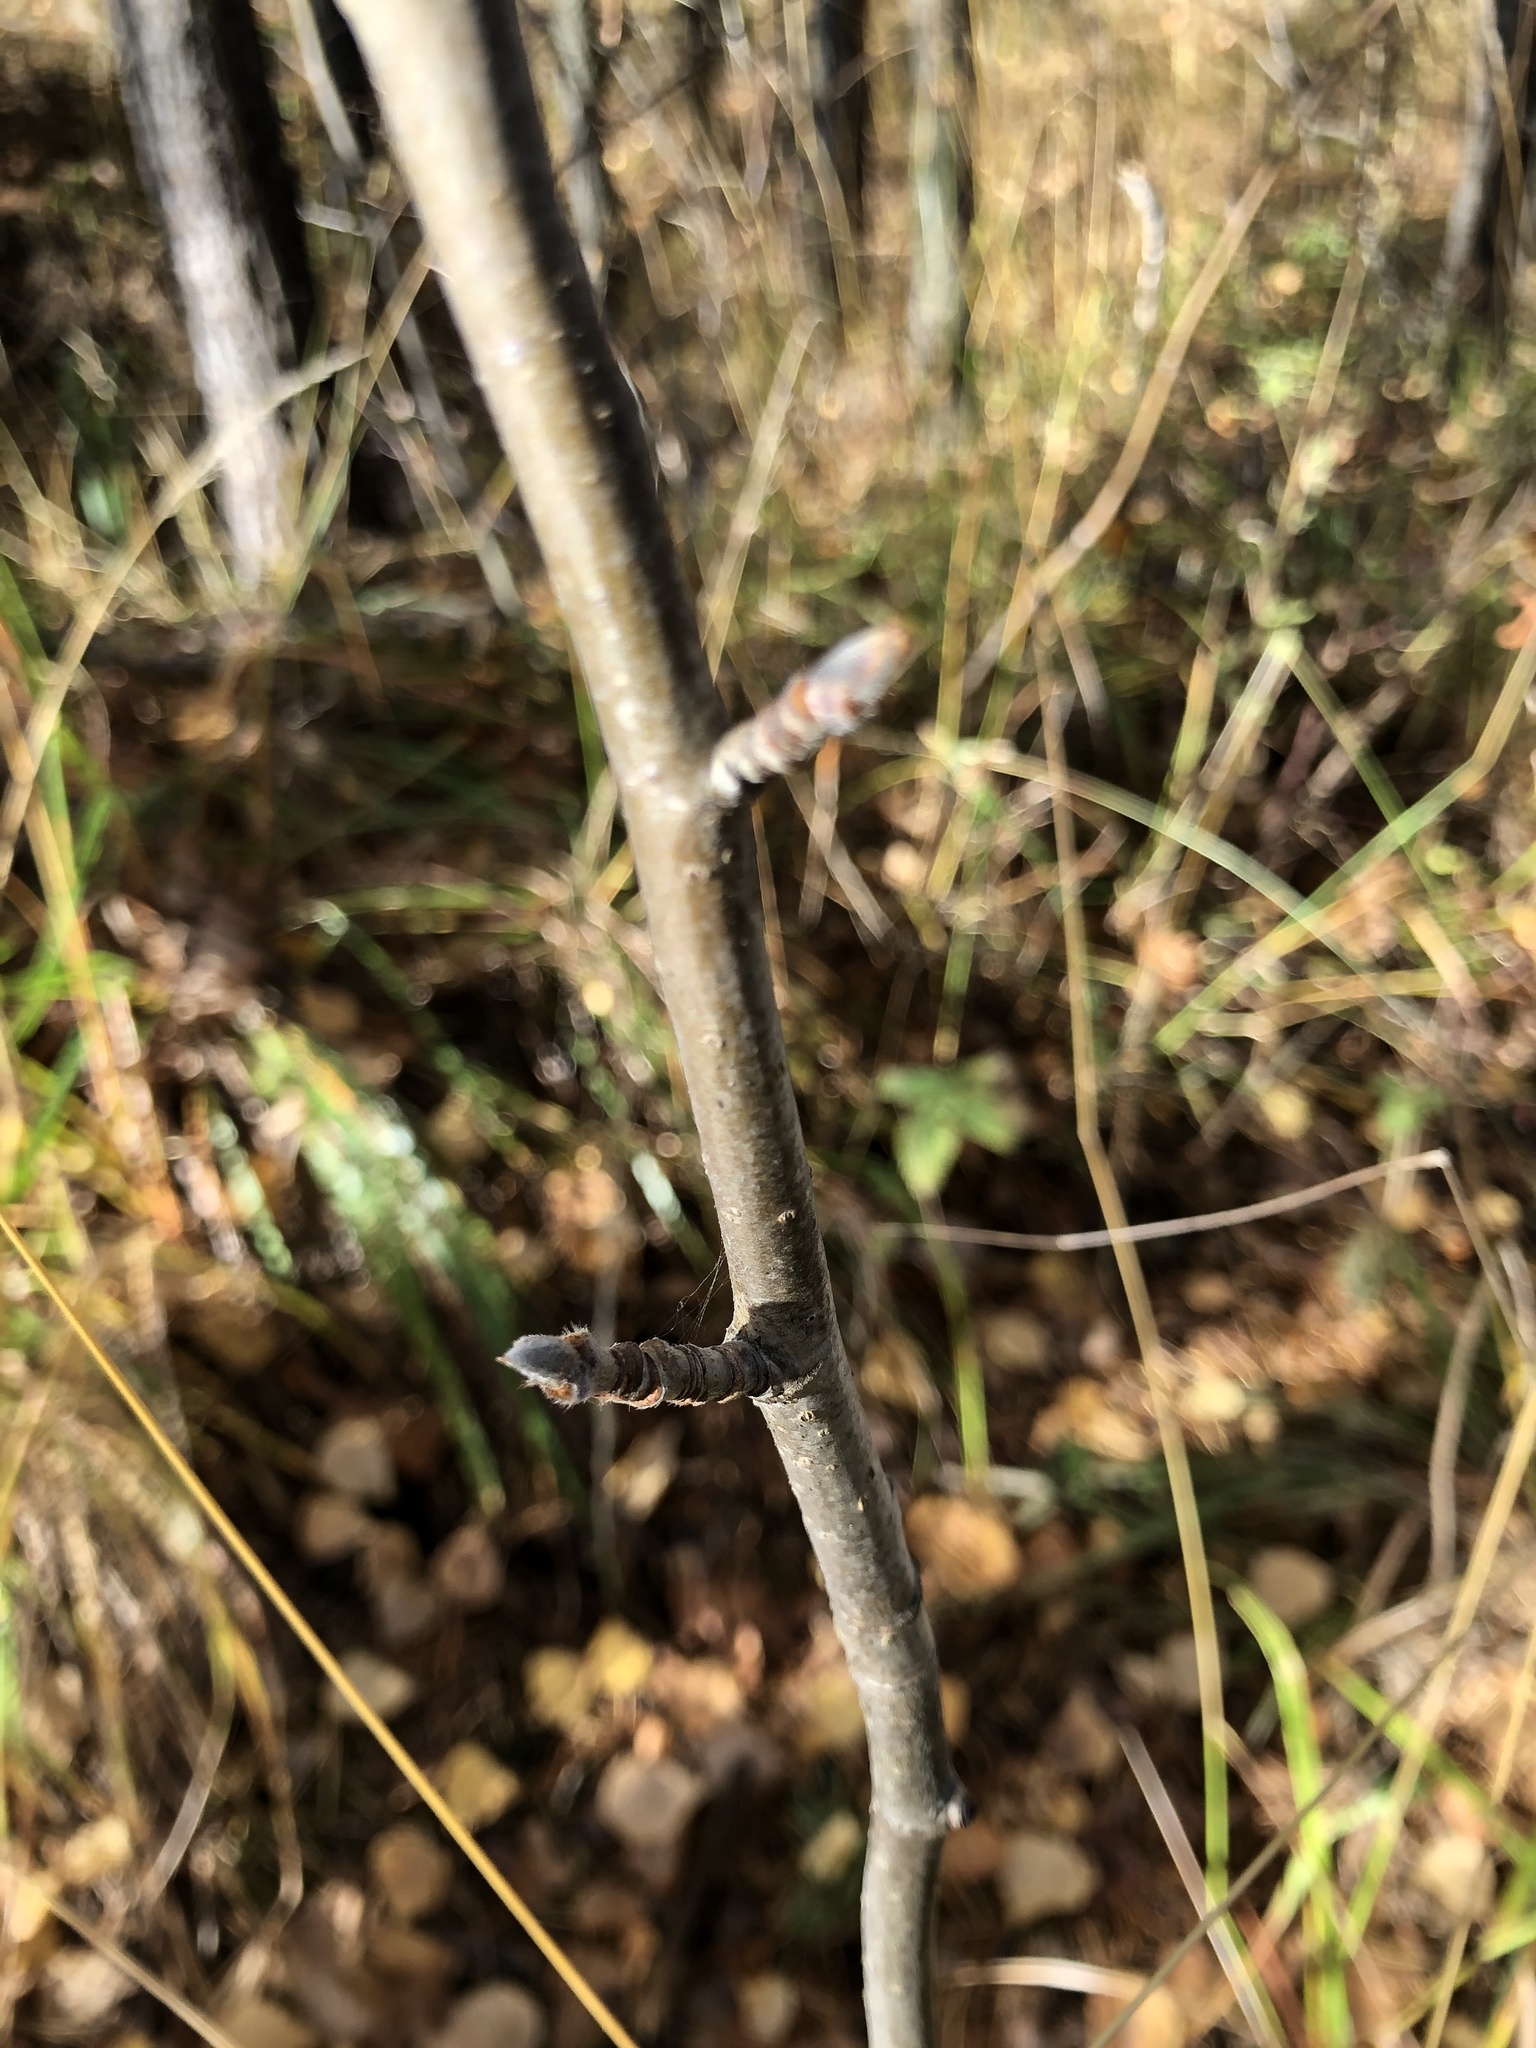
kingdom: Plantae
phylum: Tracheophyta
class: Magnoliopsida
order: Rosales
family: Rosaceae
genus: Sorbus
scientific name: Sorbus aucuparia
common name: Rowan
